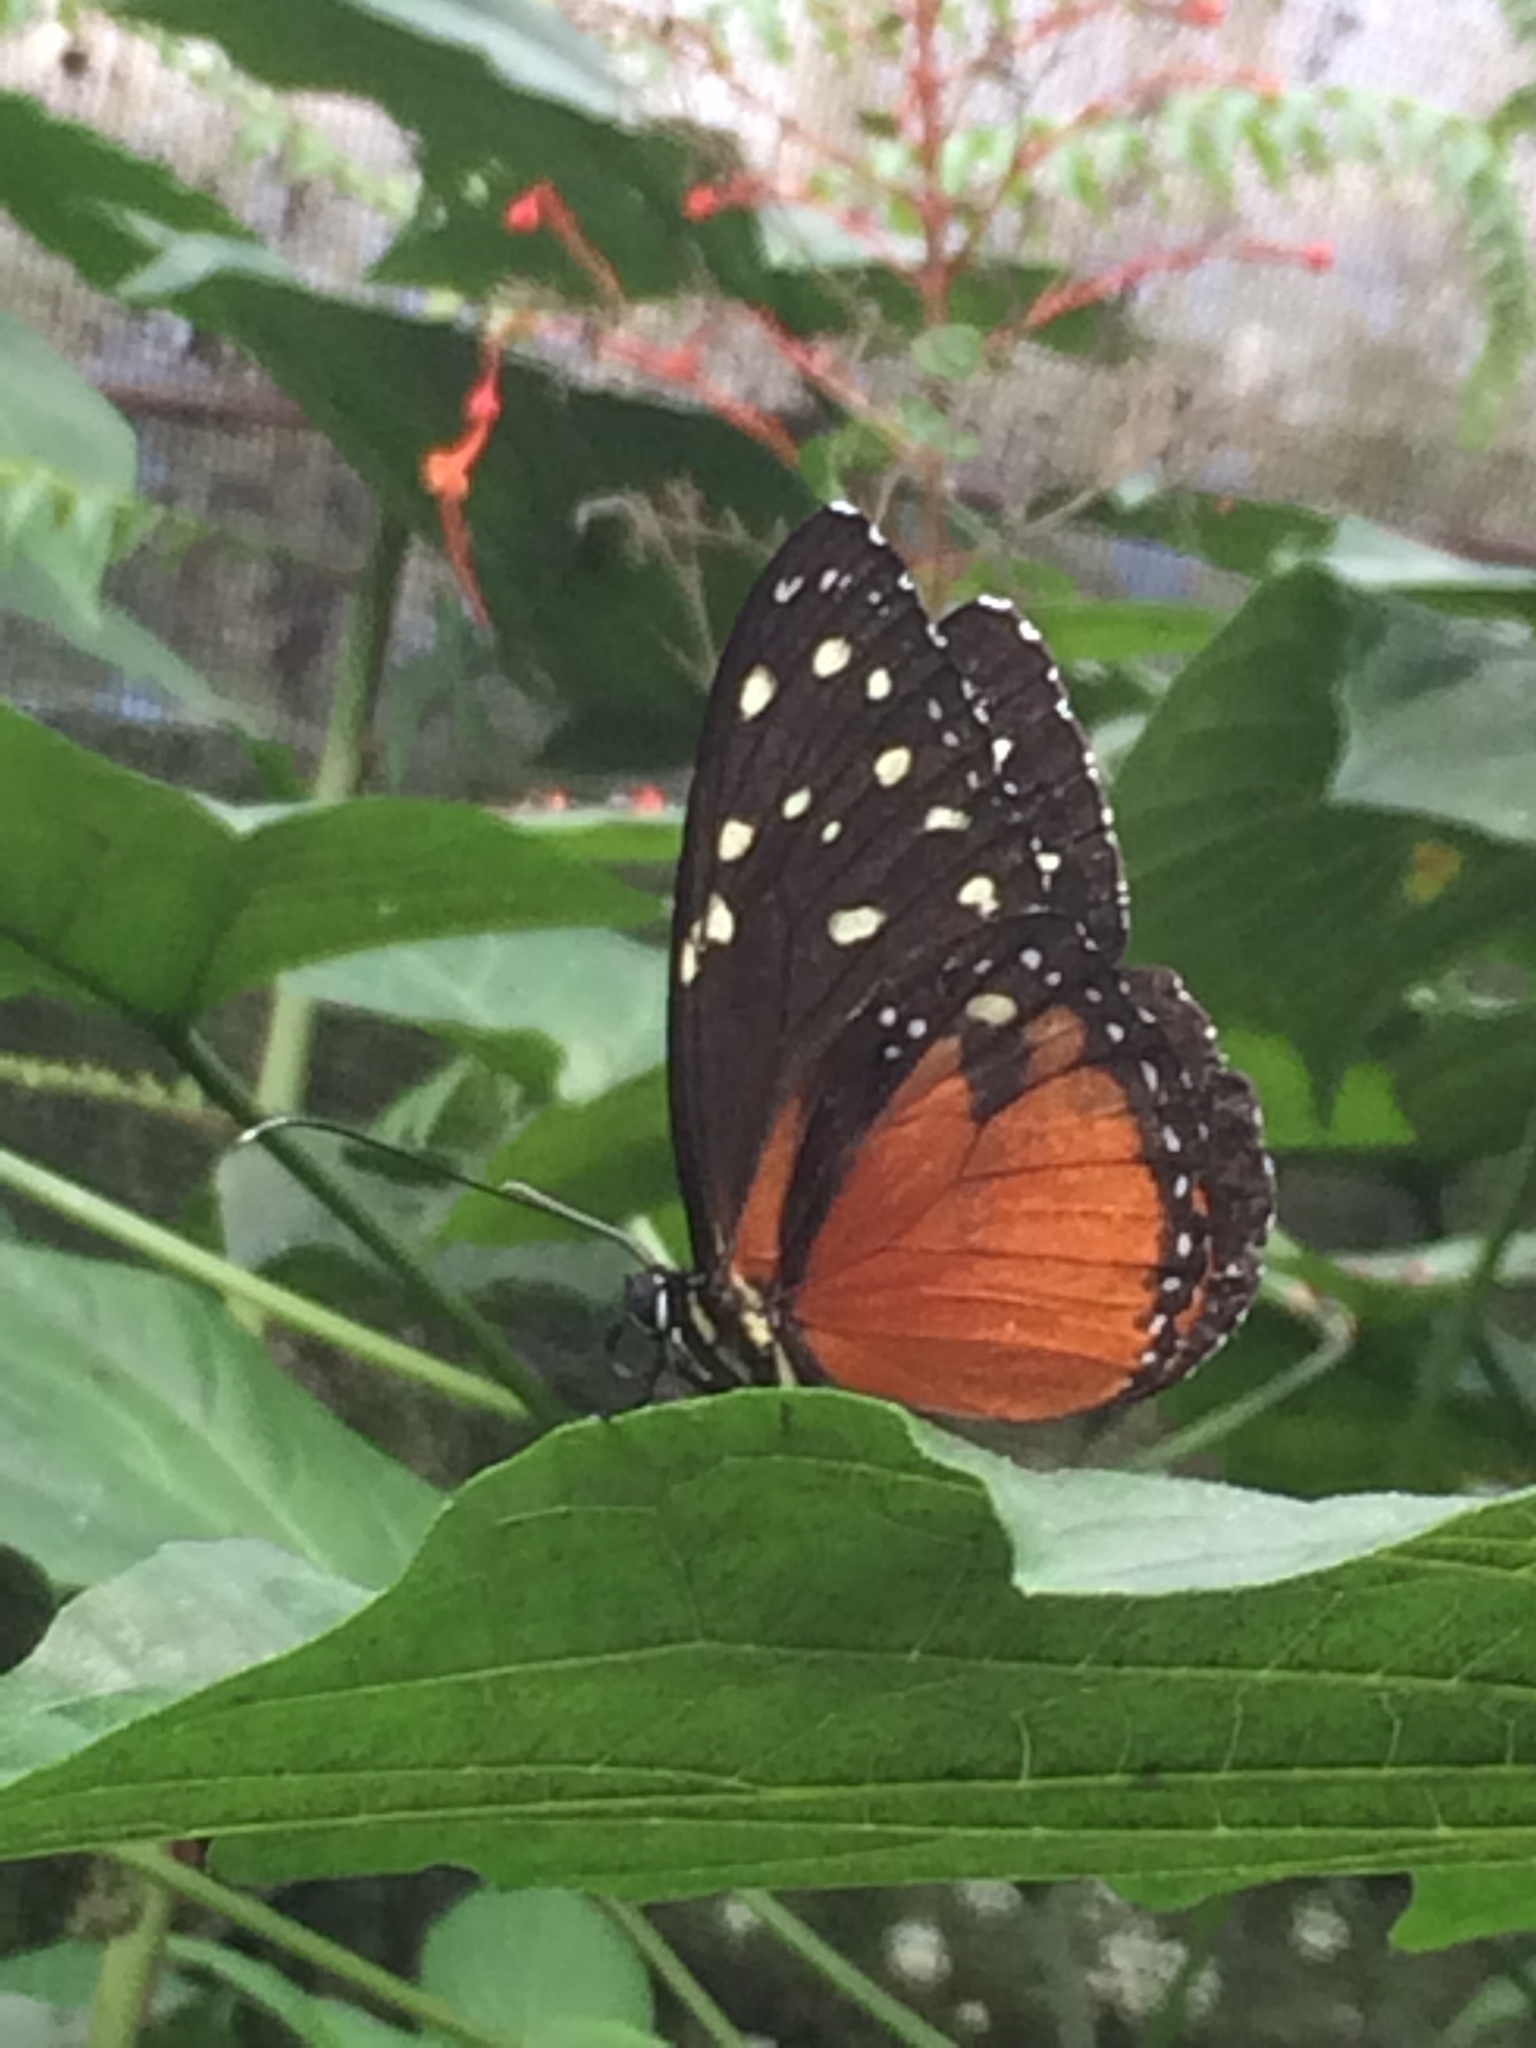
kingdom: Animalia
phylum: Arthropoda
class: Insecta
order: Lepidoptera
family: Nymphalidae
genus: Tithorea
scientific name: Tithorea tarricina
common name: Cream-spotted tigerwing
